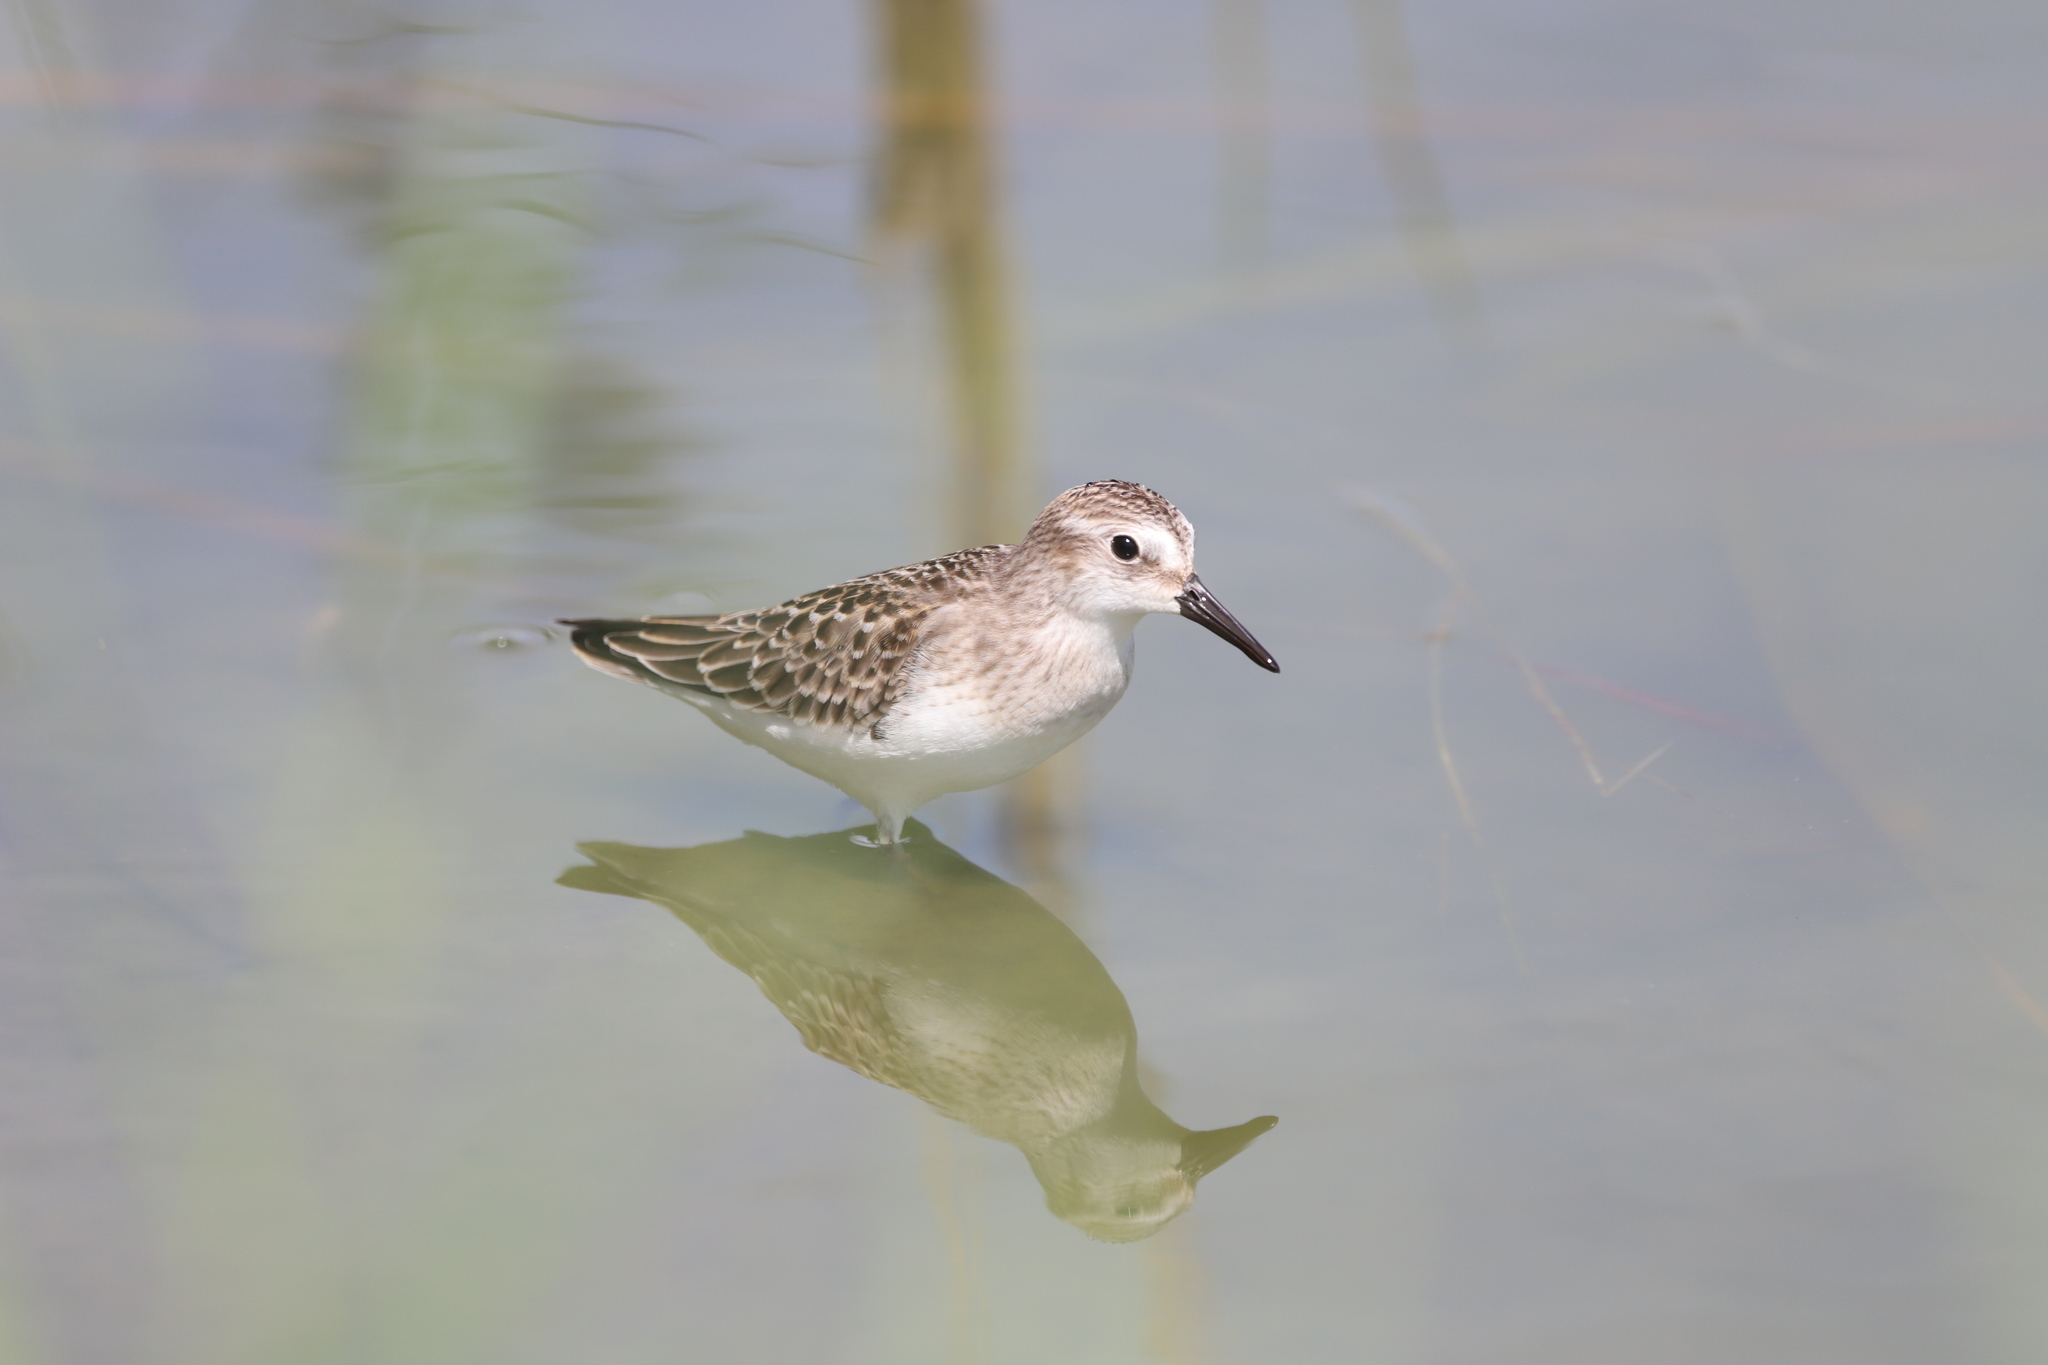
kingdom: Animalia
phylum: Chordata
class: Aves
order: Charadriiformes
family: Scolopacidae
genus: Calidris
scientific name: Calidris pusilla
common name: Semipalmated sandpiper
